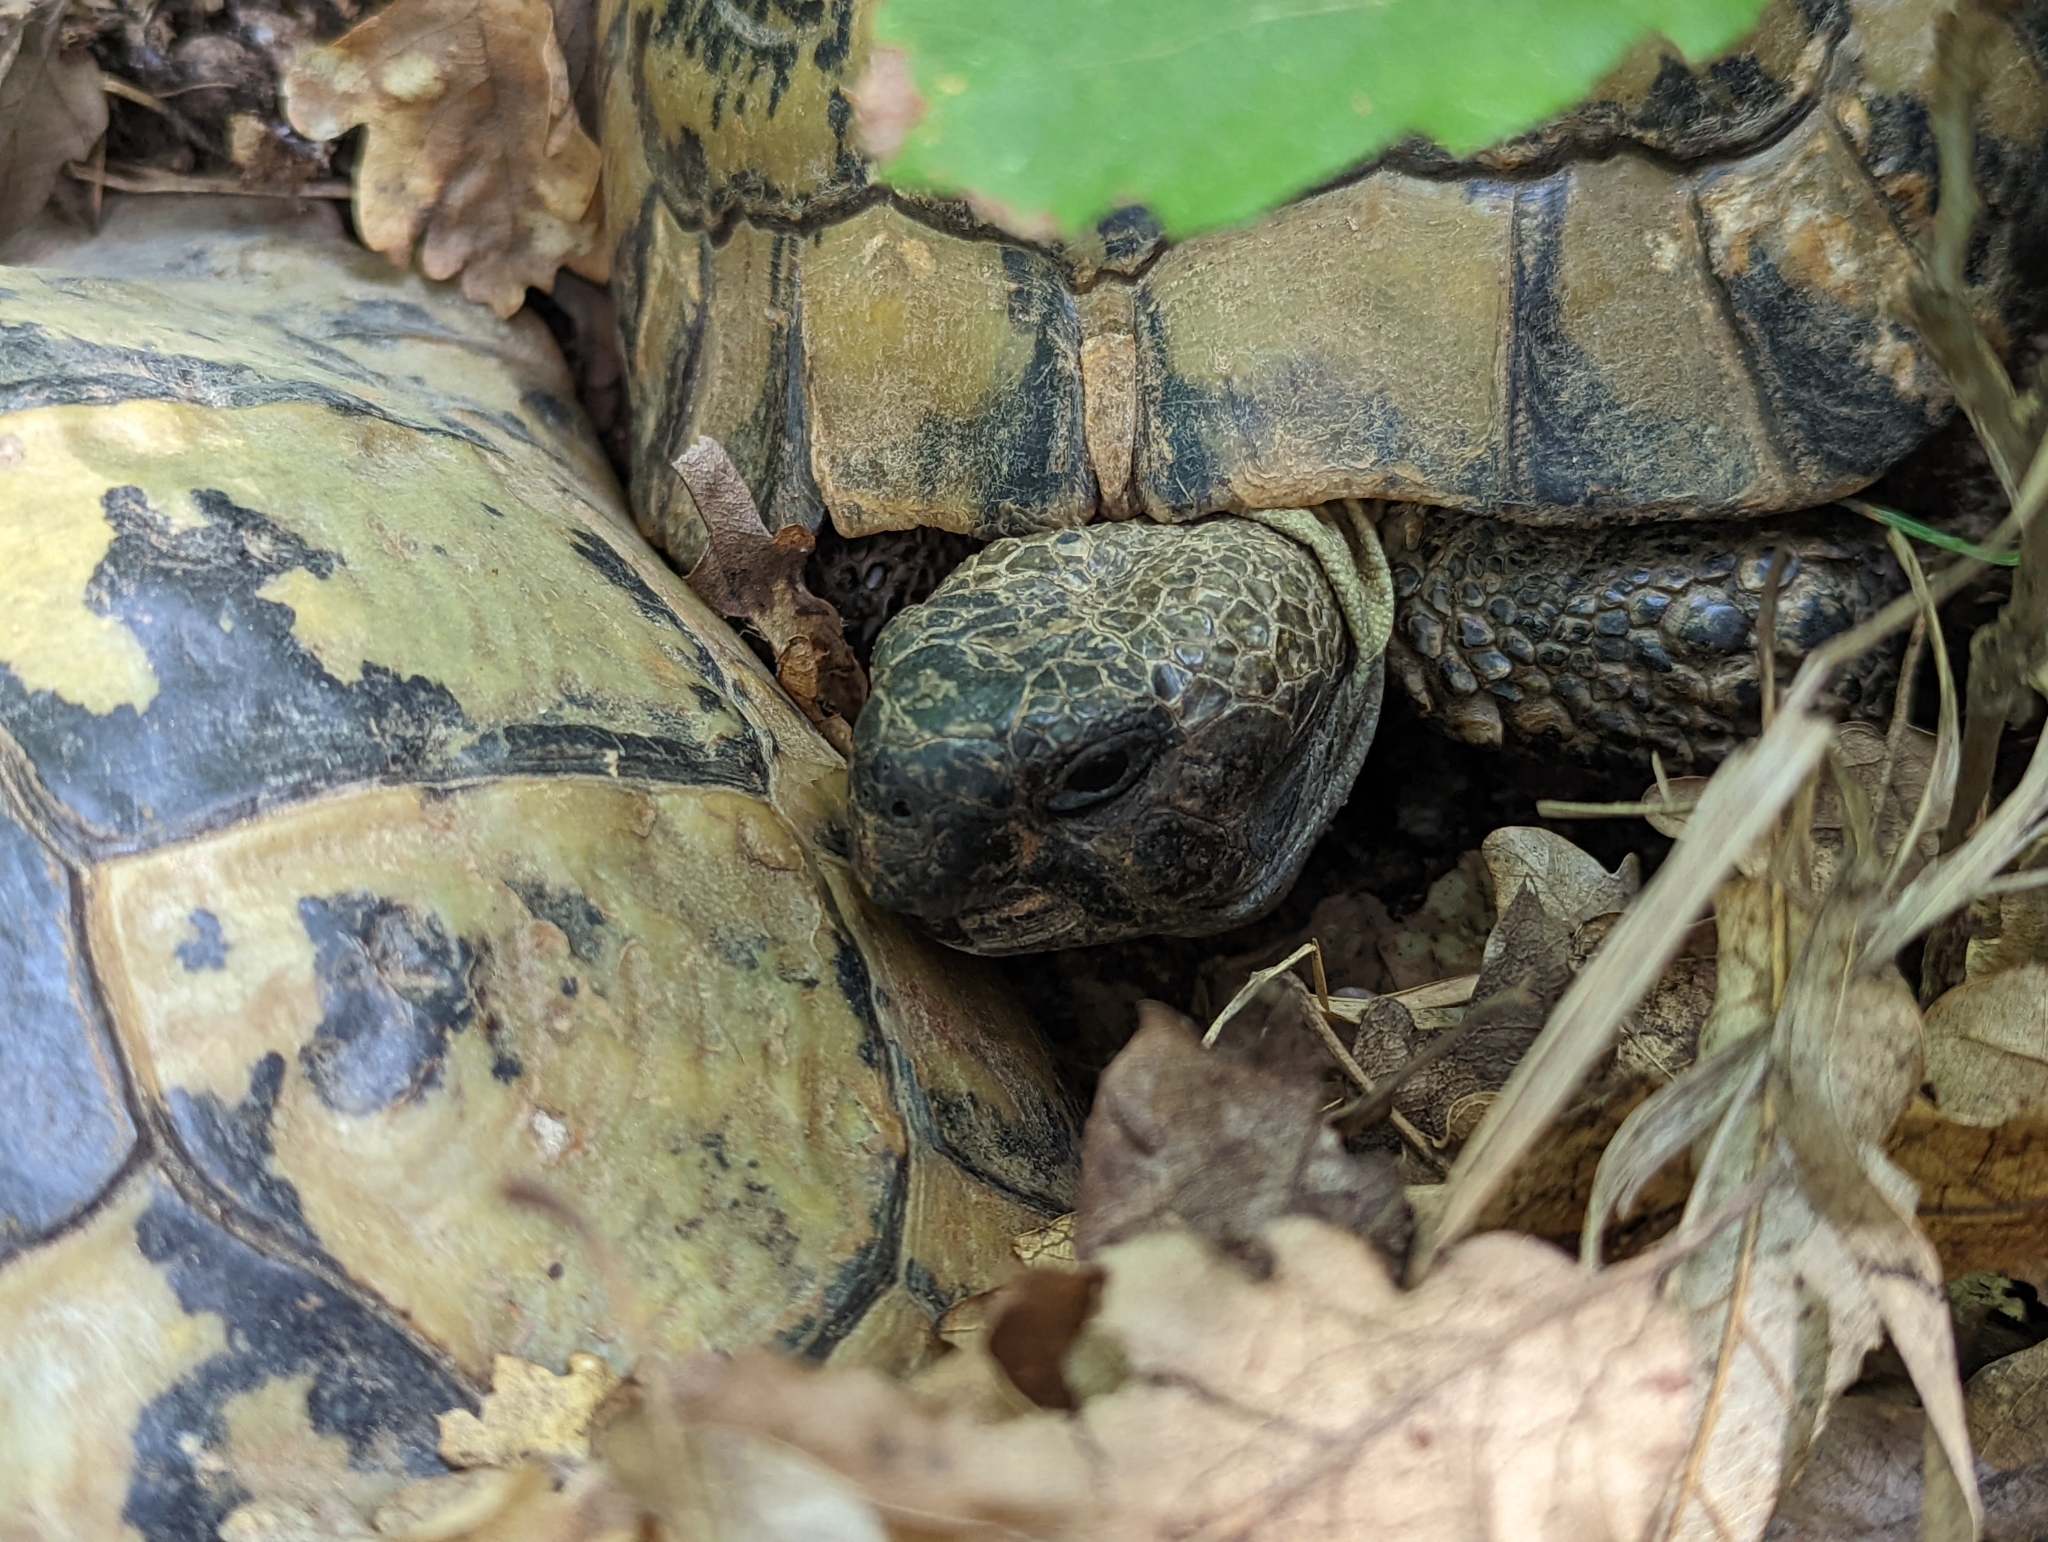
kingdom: Animalia
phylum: Chordata
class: Testudines
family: Testudinidae
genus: Testudo
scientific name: Testudo hermanni
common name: Hermann's tortoise
